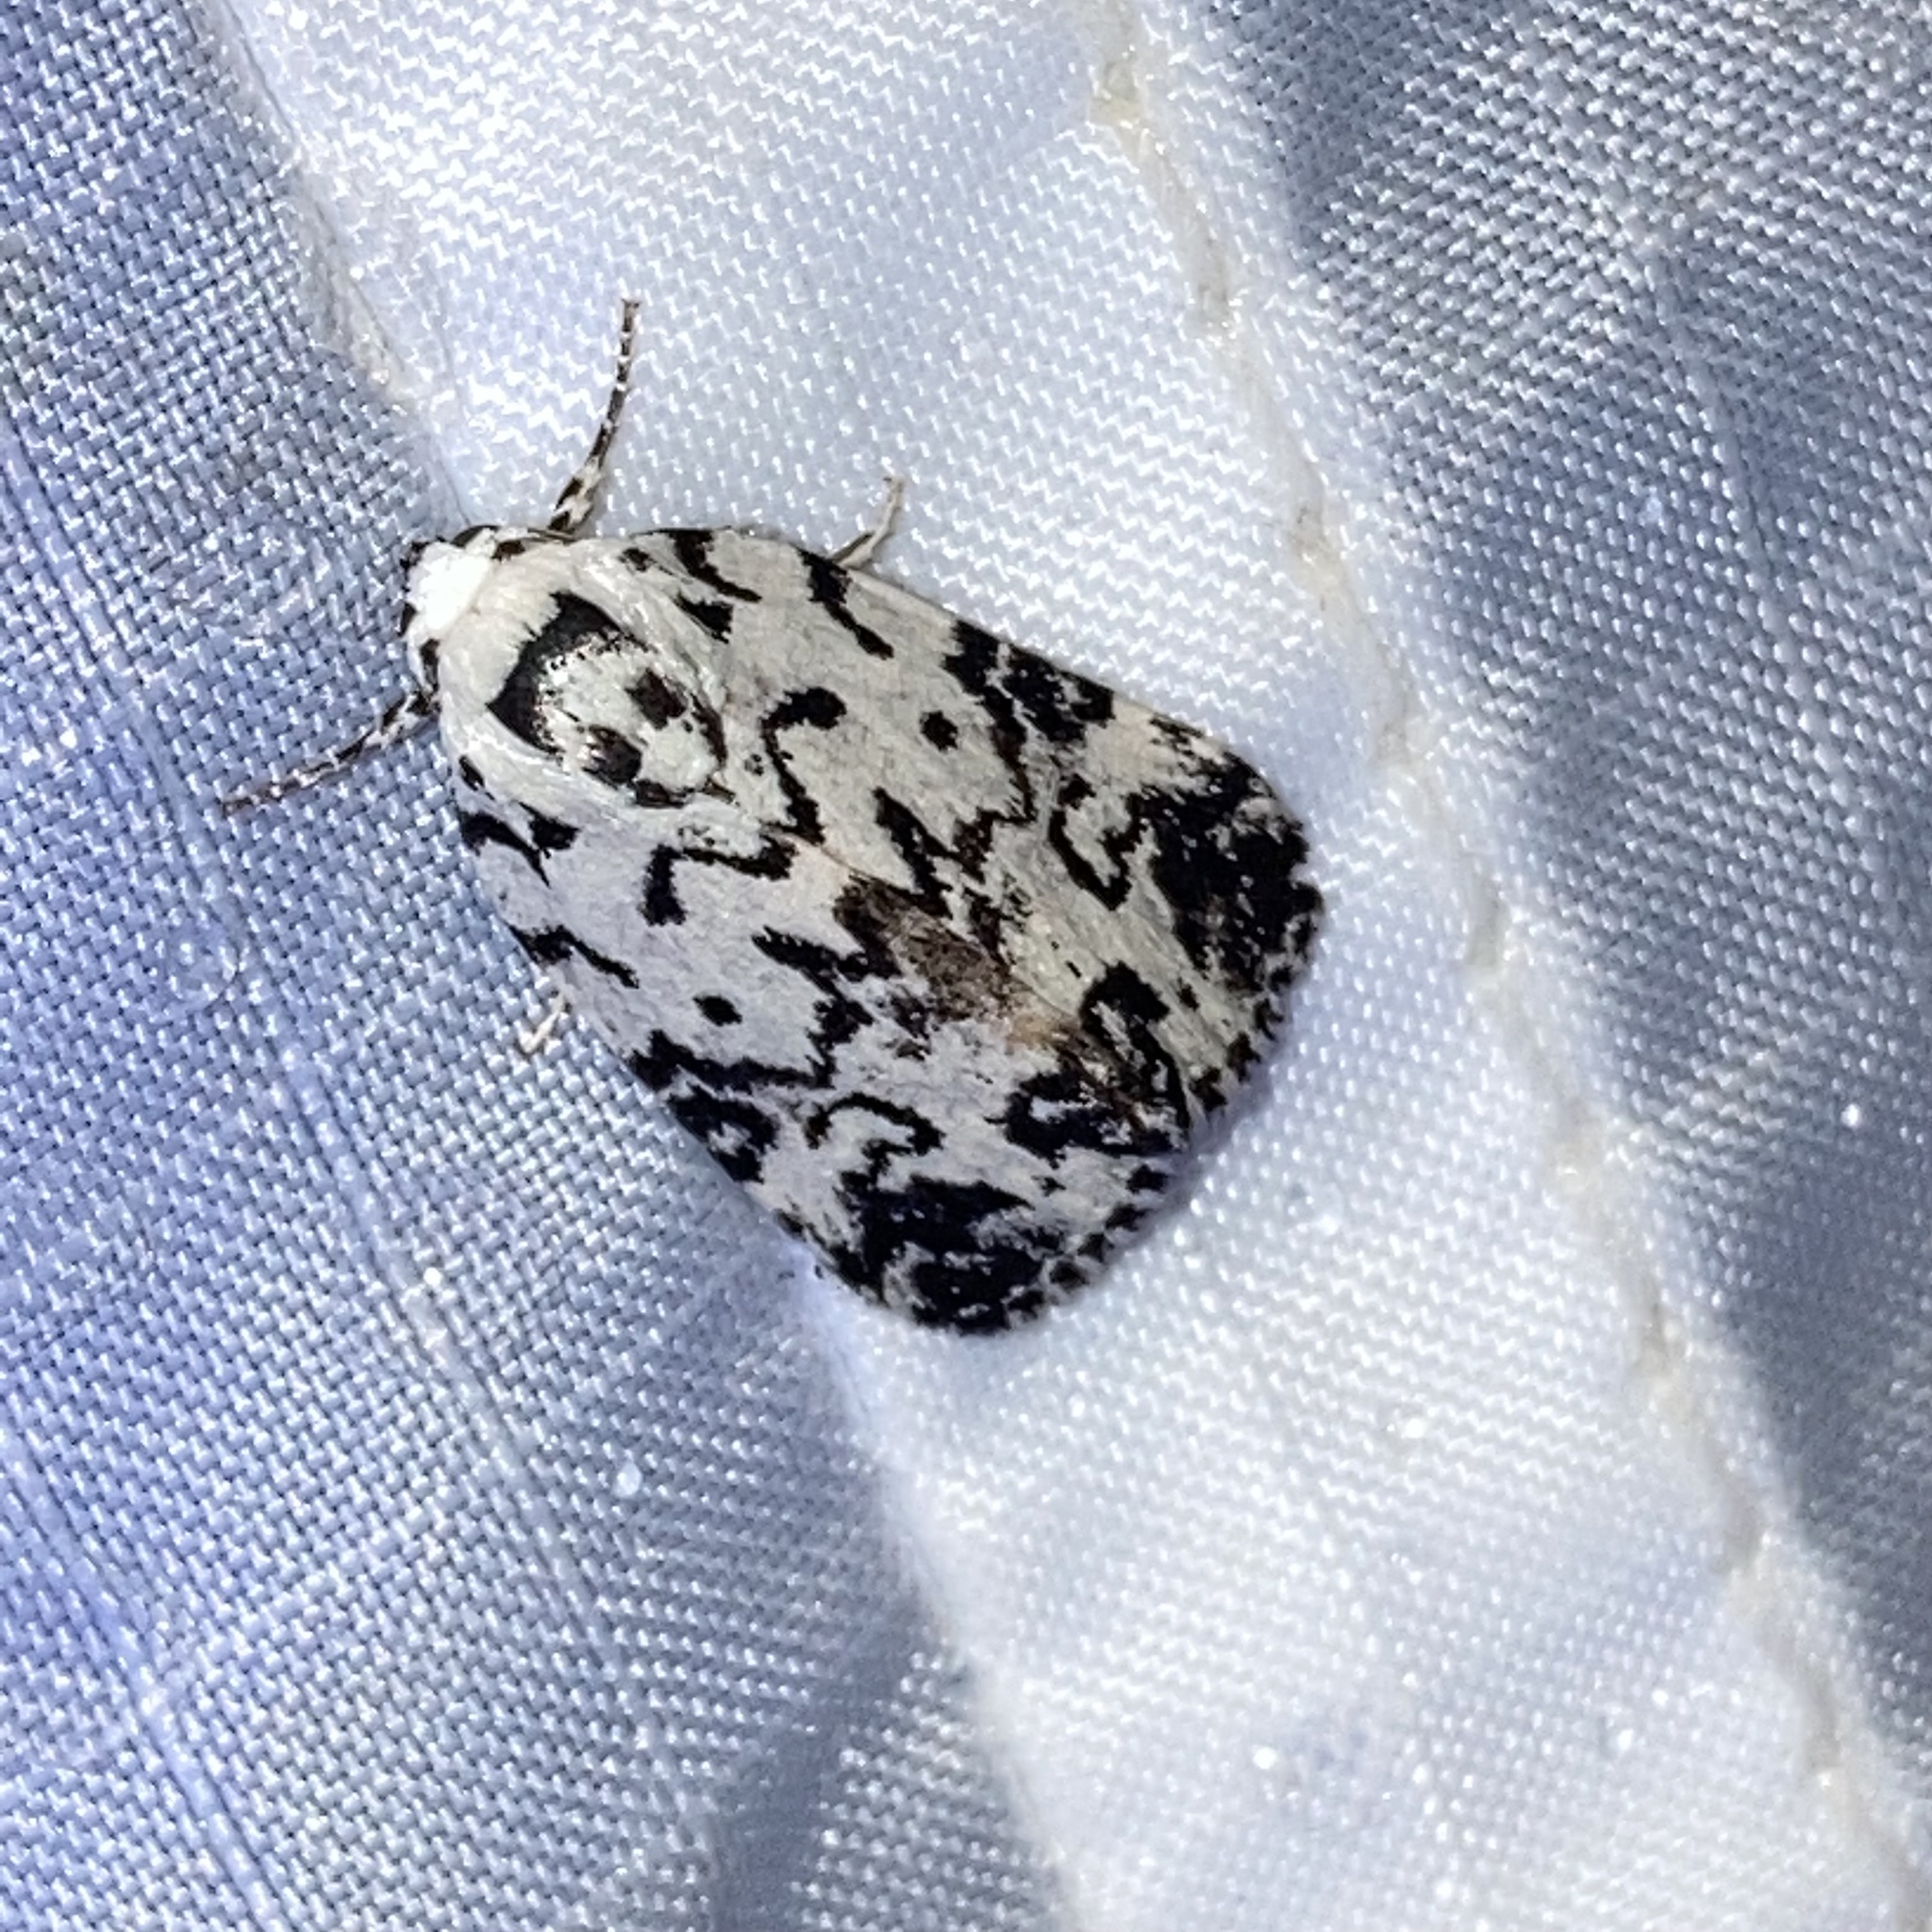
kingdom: Animalia
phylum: Arthropoda
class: Insecta
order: Lepidoptera
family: Noctuidae
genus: Polygrammate
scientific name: Polygrammate hebraeicum
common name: Hebrew moth
